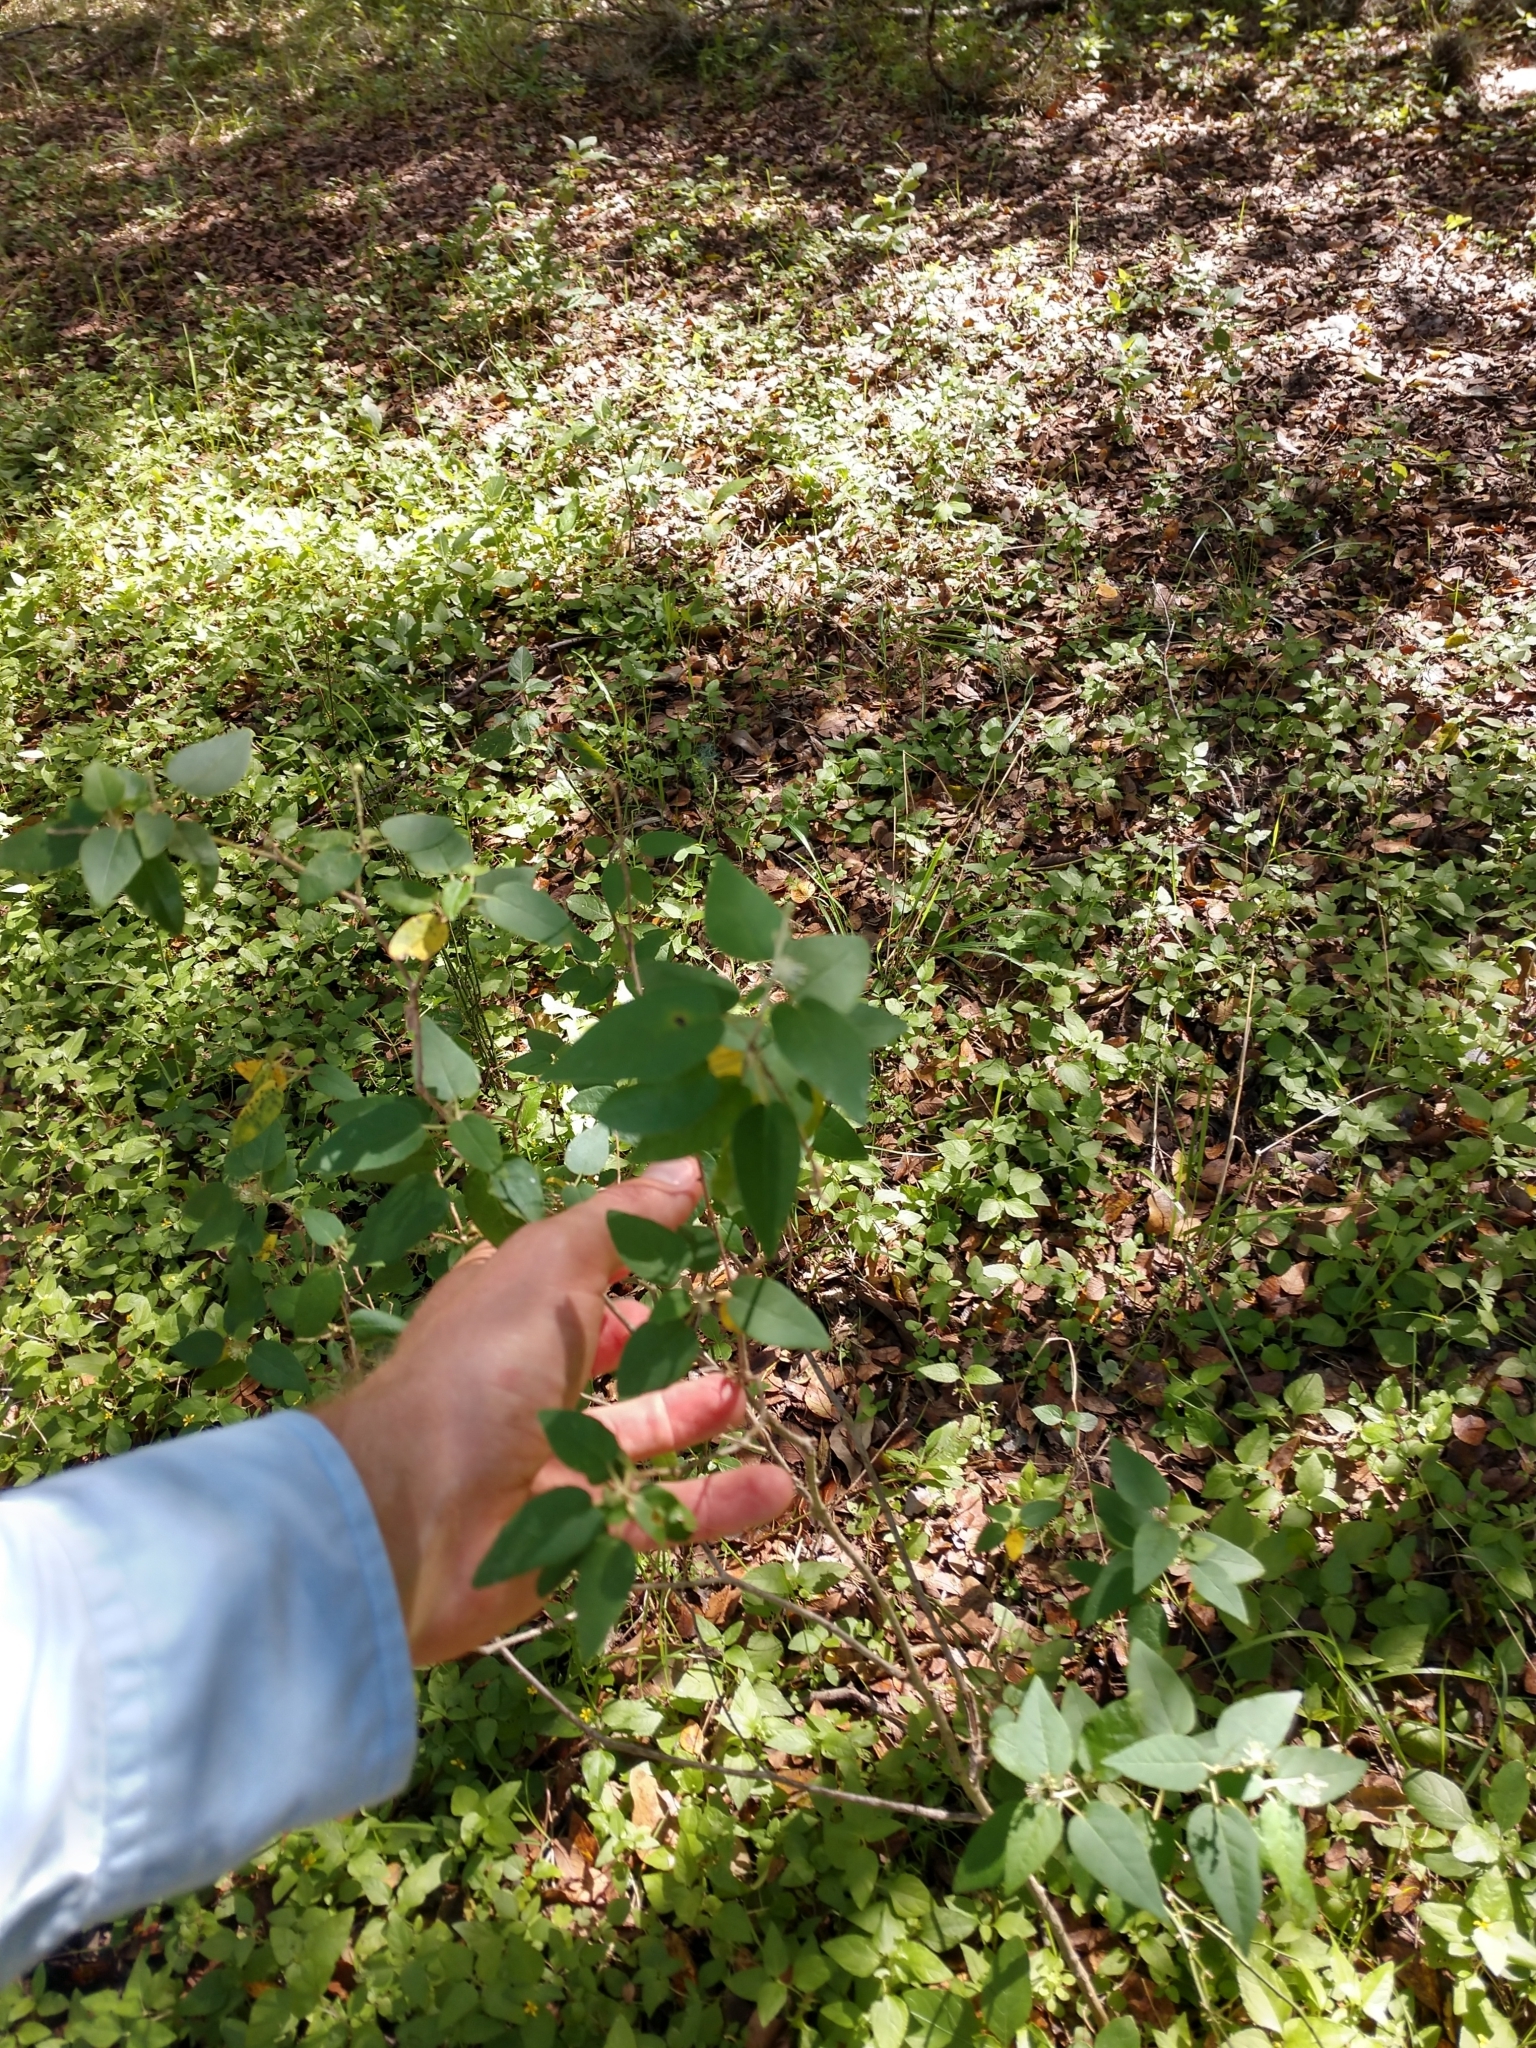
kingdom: Plantae
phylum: Tracheophyta
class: Magnoliopsida
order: Malpighiales
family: Euphorbiaceae
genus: Croton
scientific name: Croton fruticulosus
